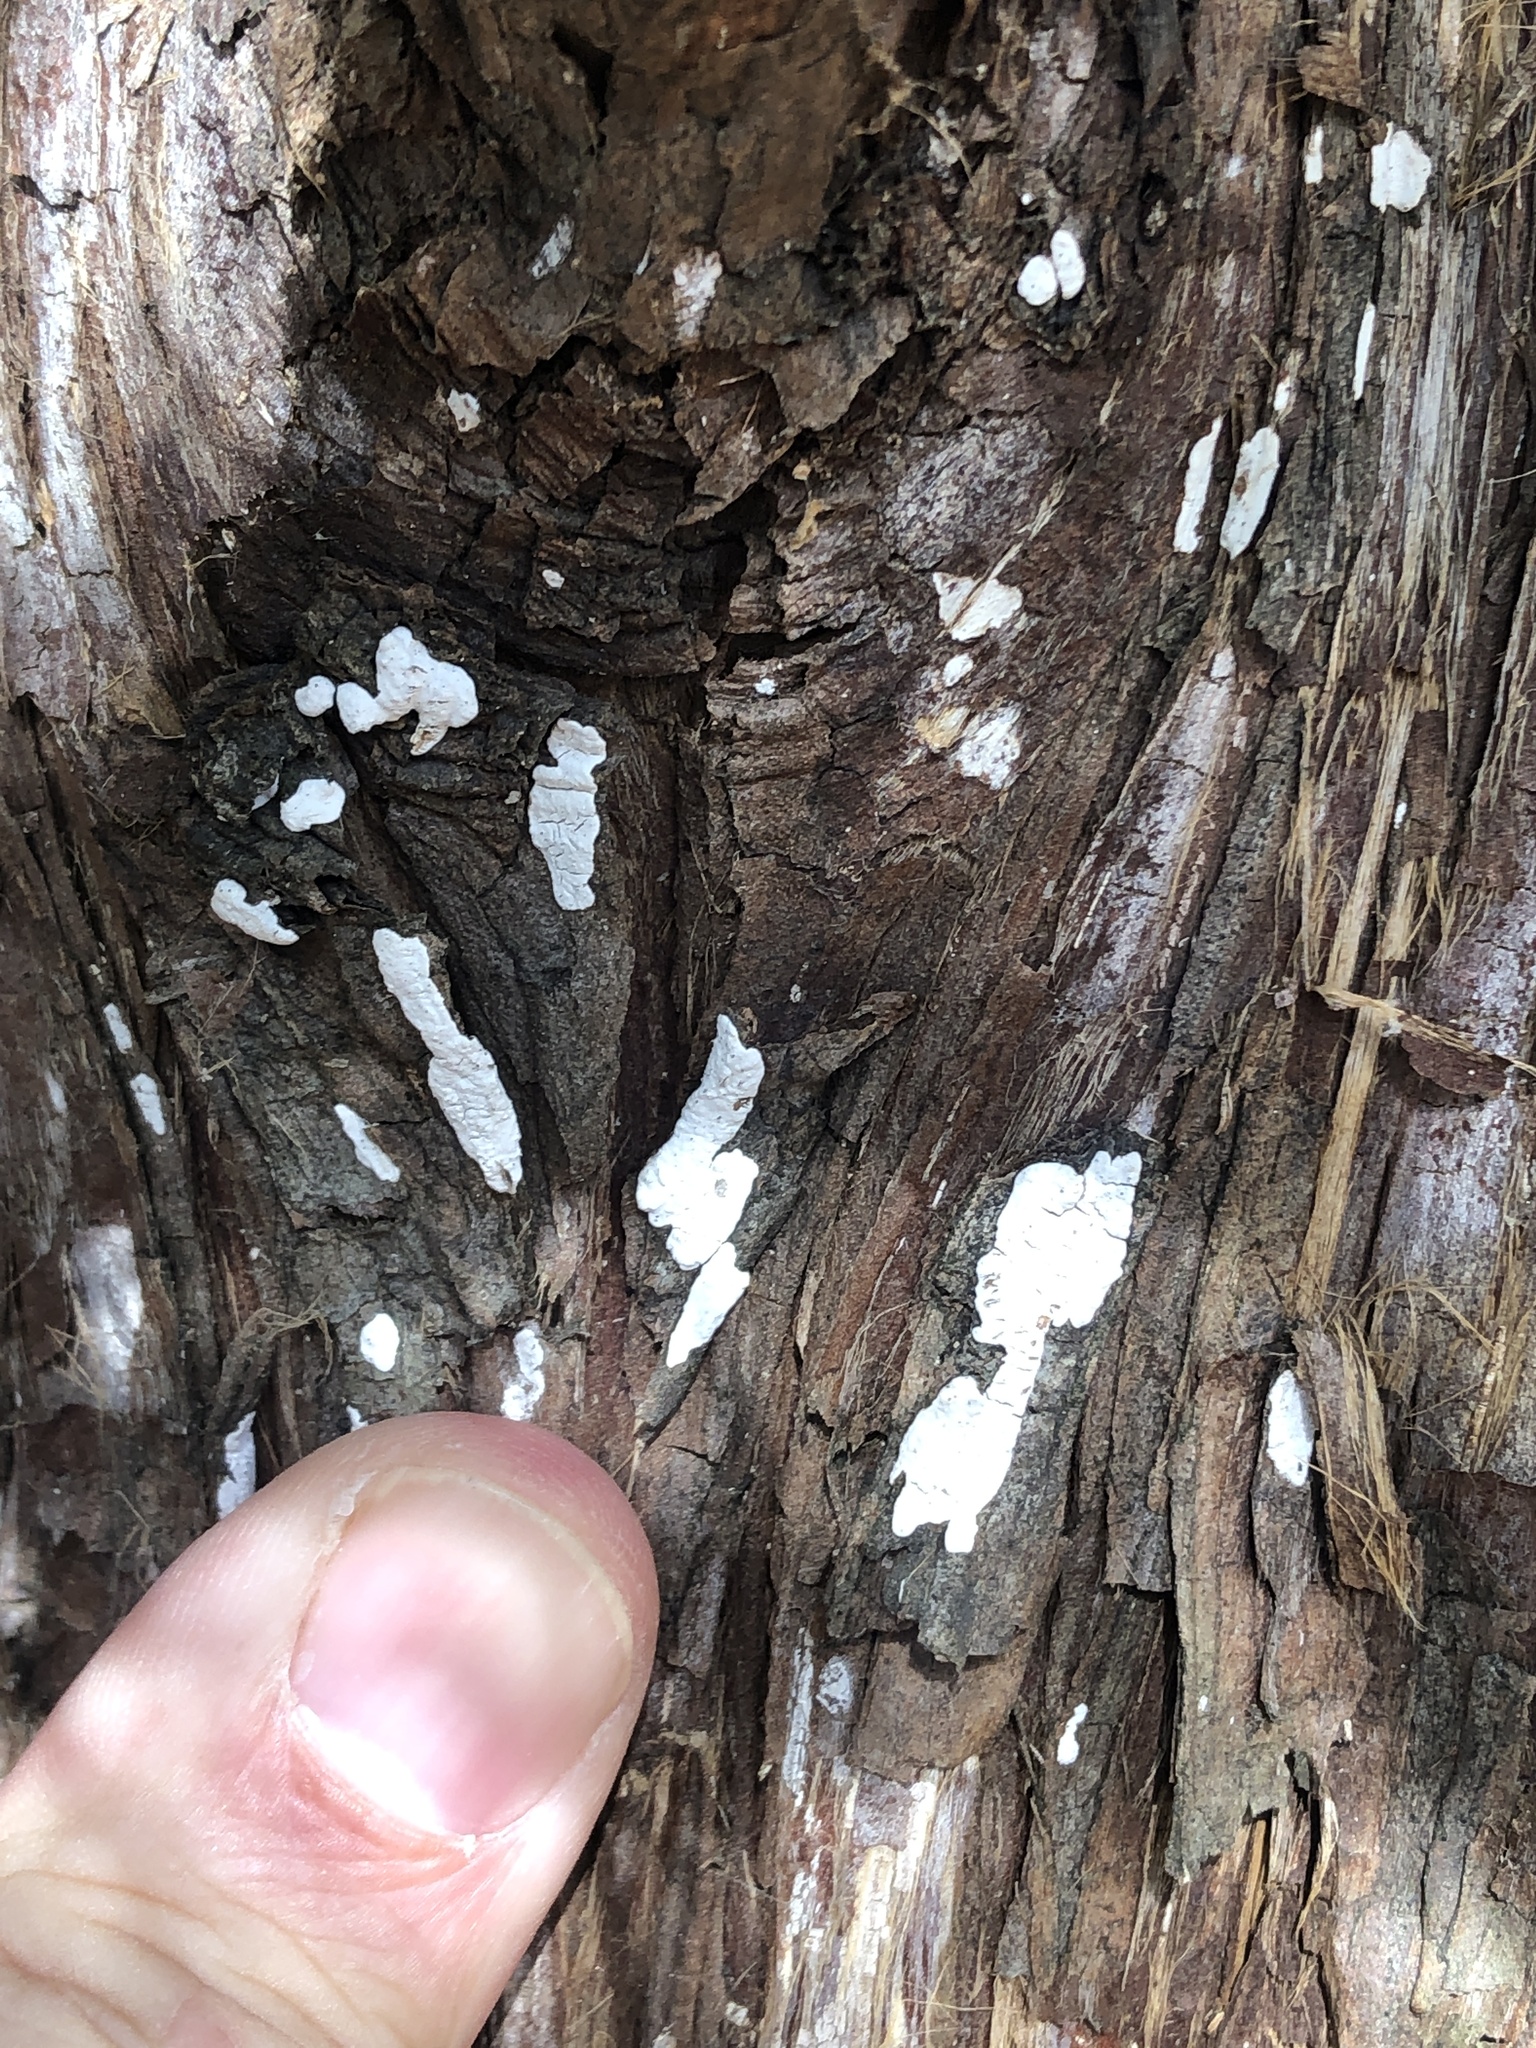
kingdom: Fungi
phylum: Basidiomycota
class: Agaricomycetes
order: Agaricales
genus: Dendrothele
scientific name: Dendrothele nivosa
